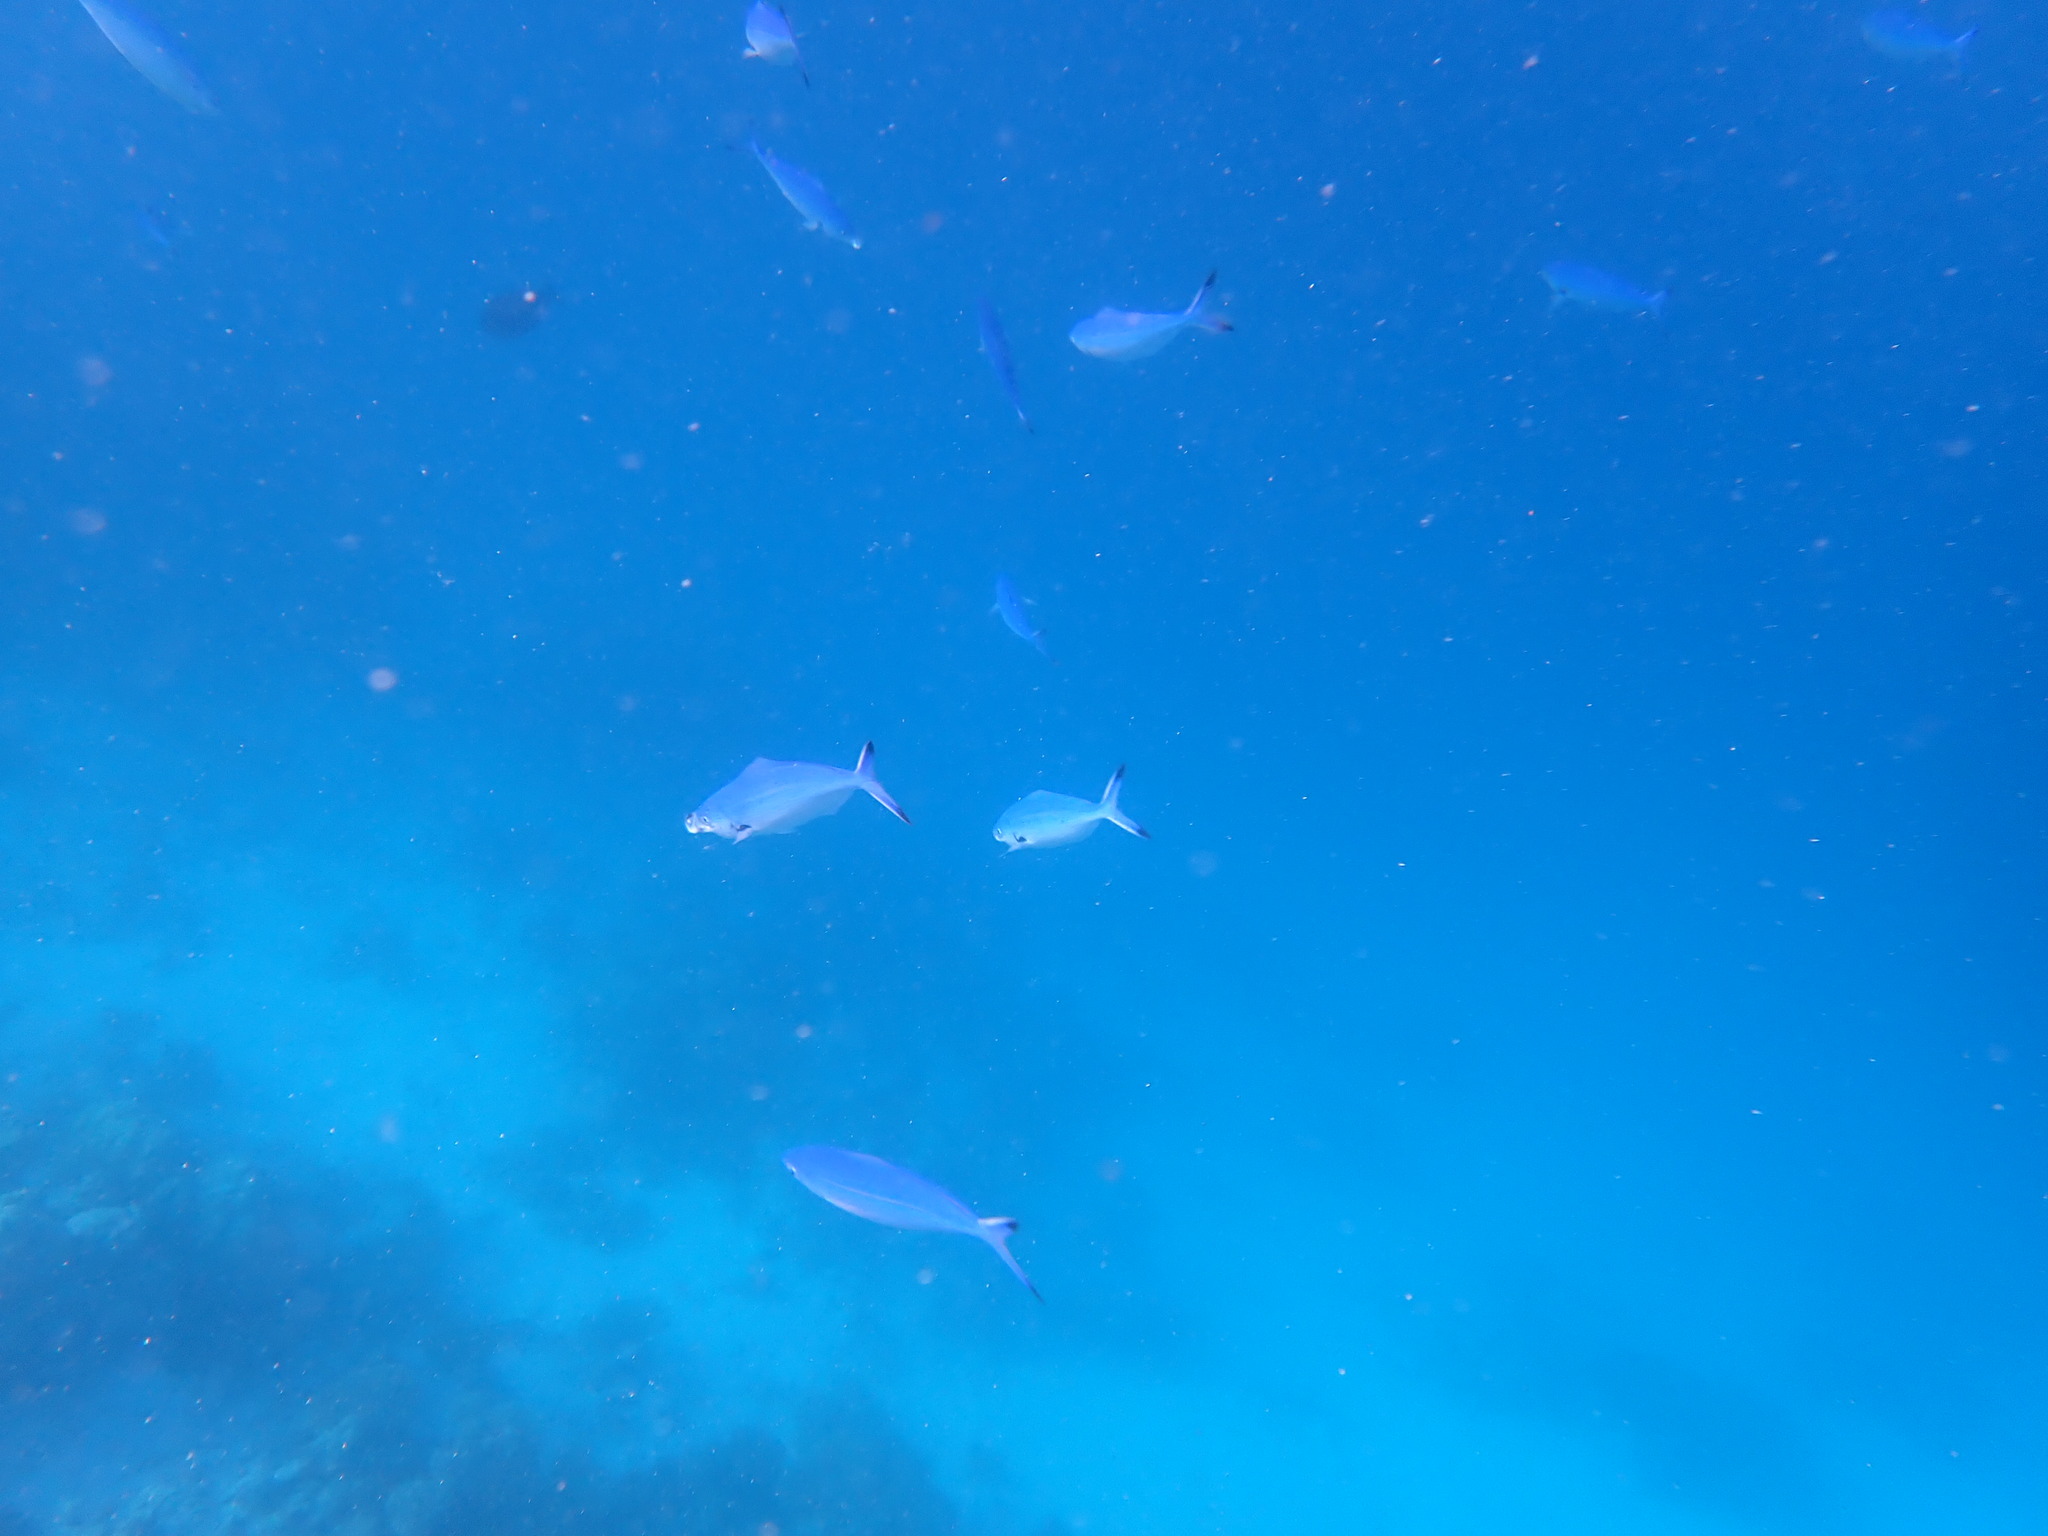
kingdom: Animalia
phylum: Chordata
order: Perciformes
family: Caesionidae
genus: Caesio
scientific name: Caesio lunaris
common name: Blue fusilier
